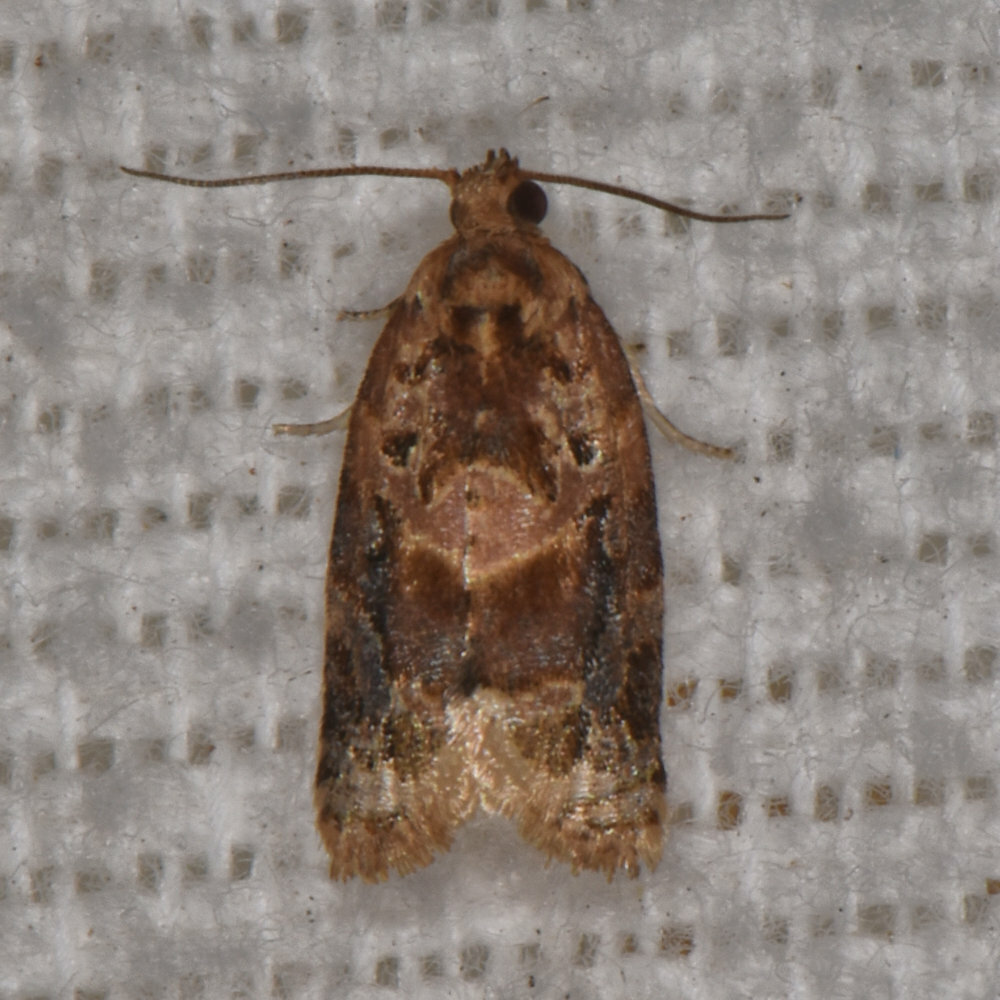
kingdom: Animalia
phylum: Arthropoda
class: Insecta
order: Lepidoptera
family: Tortricidae
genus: Argyrotaenia
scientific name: Argyrotaenia velutinana
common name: Red-banded leafroller moth
